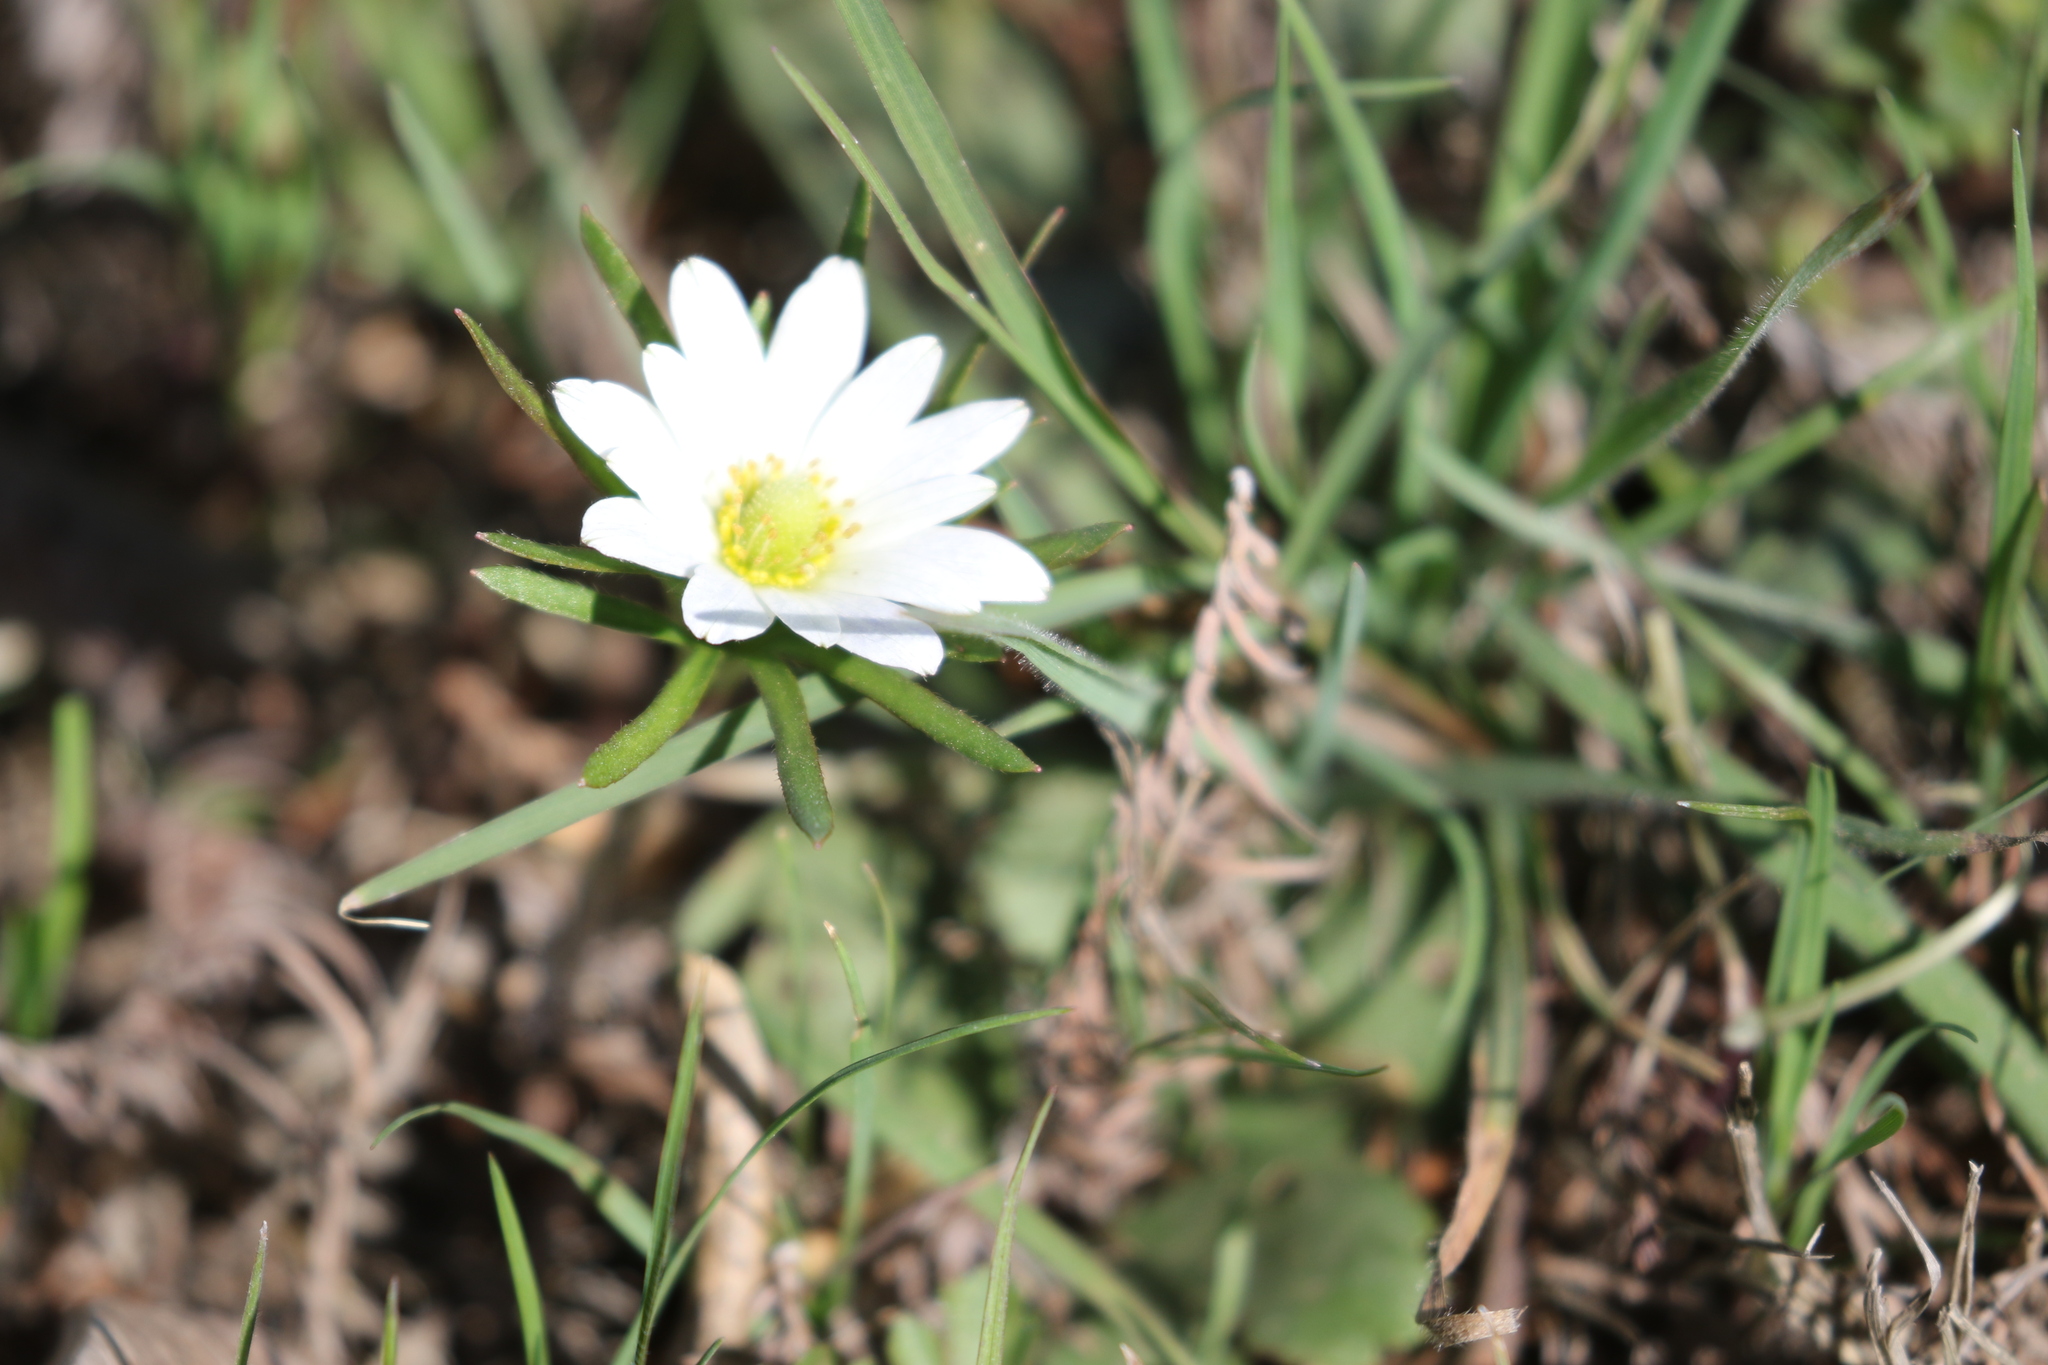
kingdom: Plantae
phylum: Tracheophyta
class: Magnoliopsida
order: Ranunculales
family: Ranunculaceae
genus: Anemone
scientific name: Anemone berlandieri
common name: Ten-petal anemone
